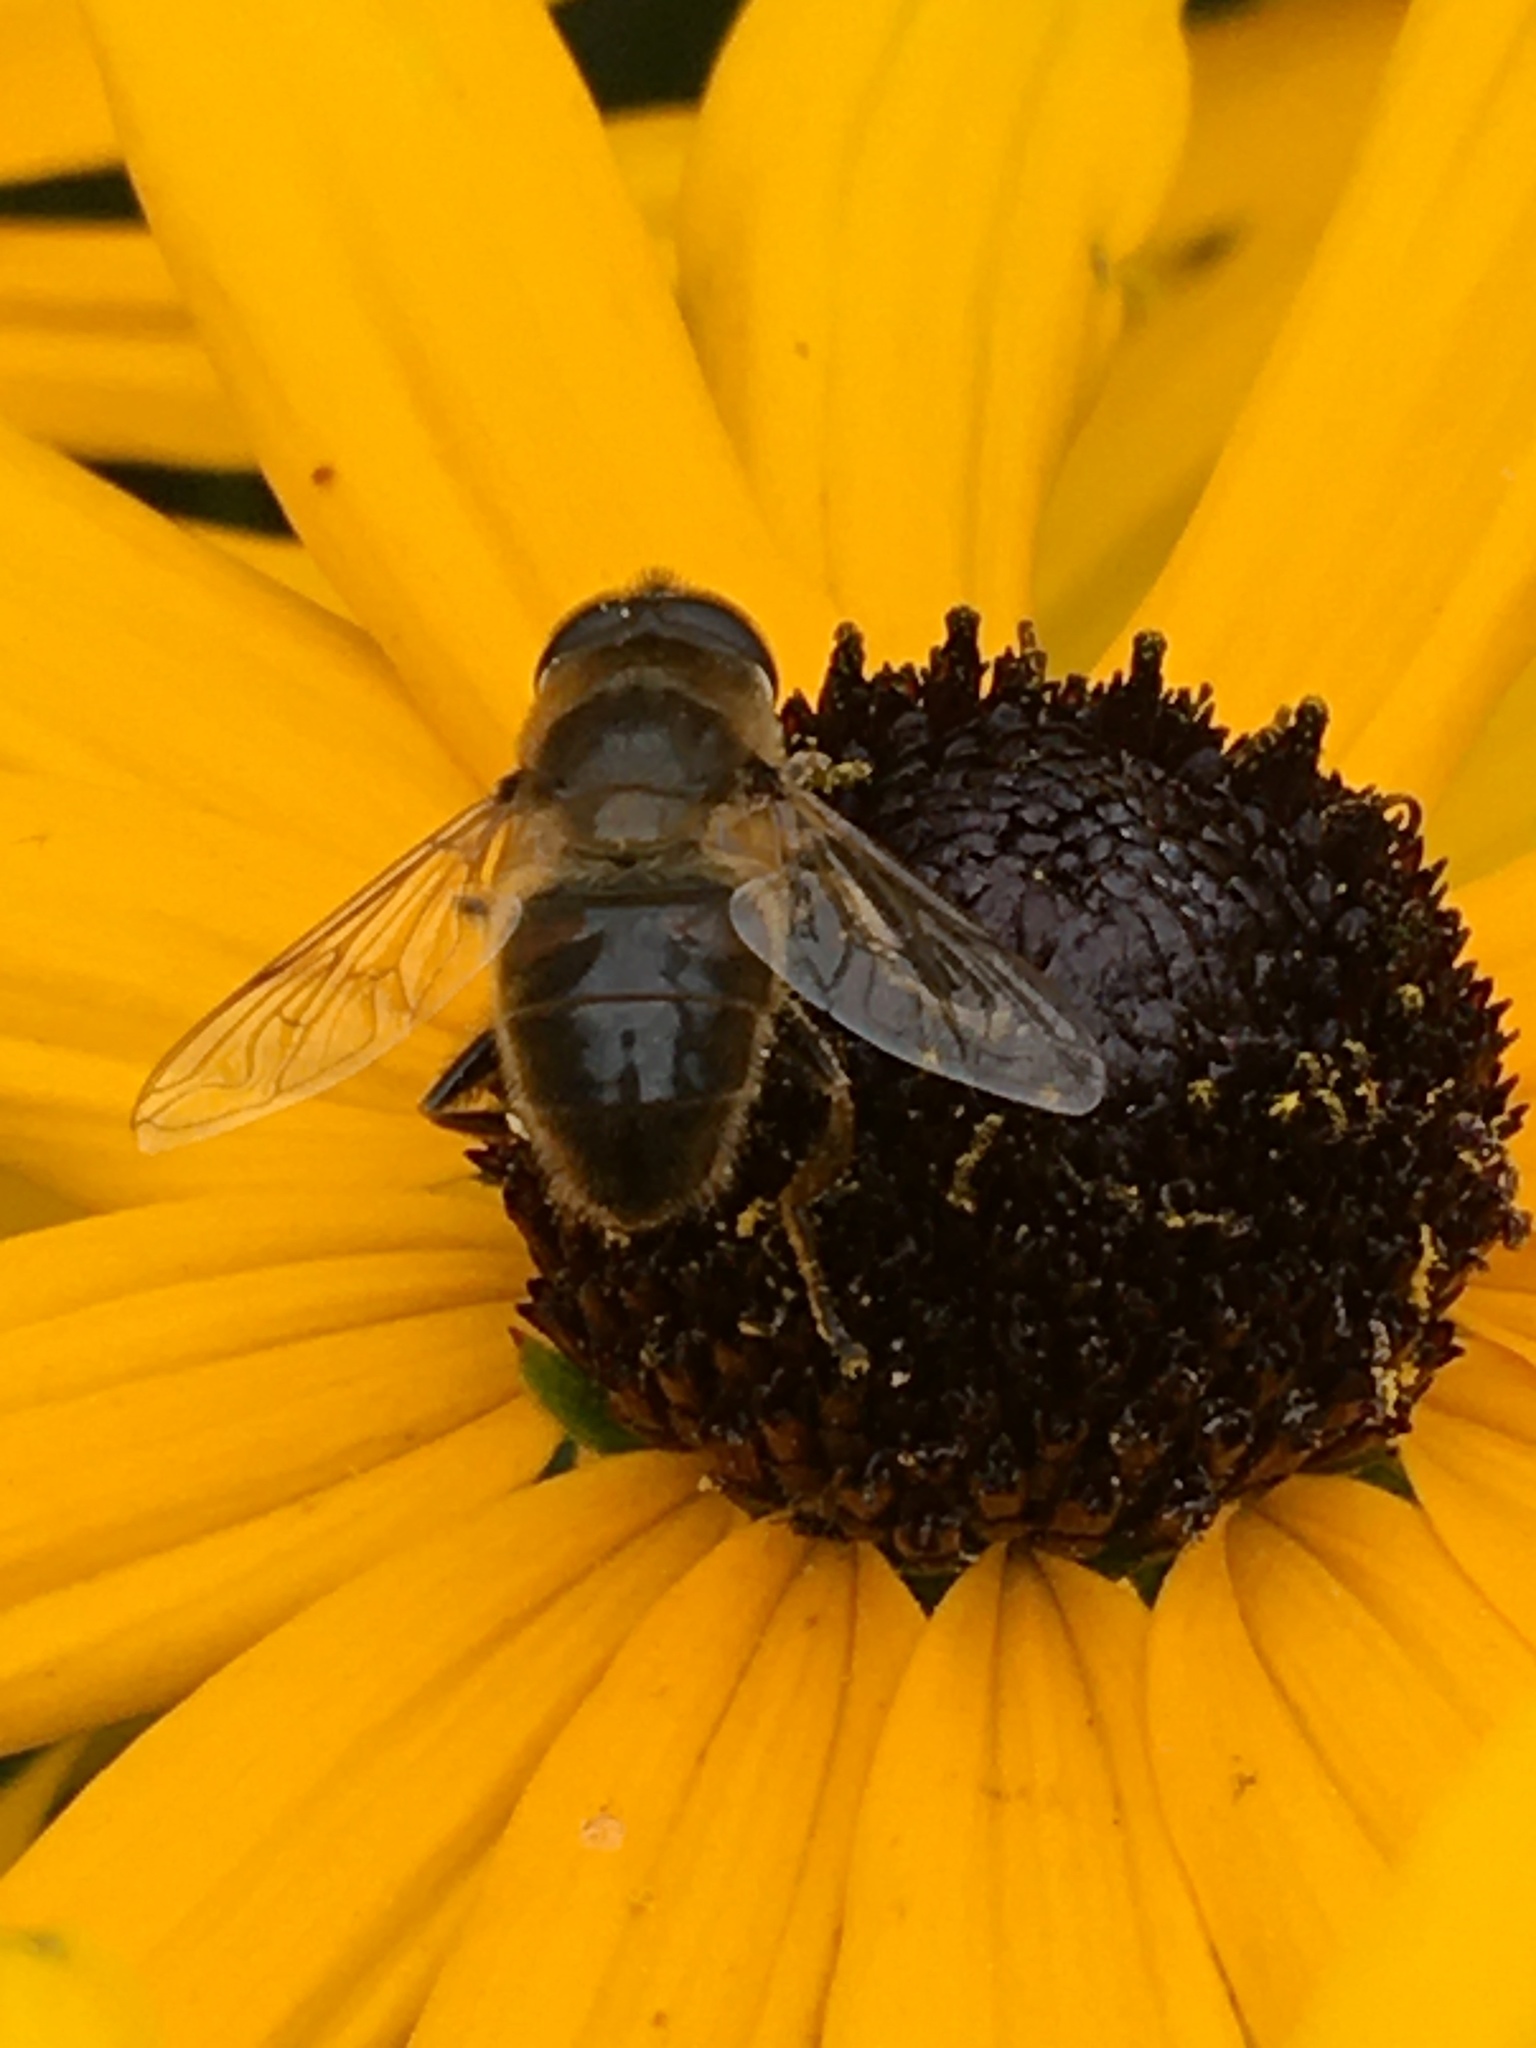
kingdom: Animalia
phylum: Arthropoda
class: Insecta
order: Diptera
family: Syrphidae
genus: Eristalis
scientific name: Eristalis tenax
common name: Drone fly
